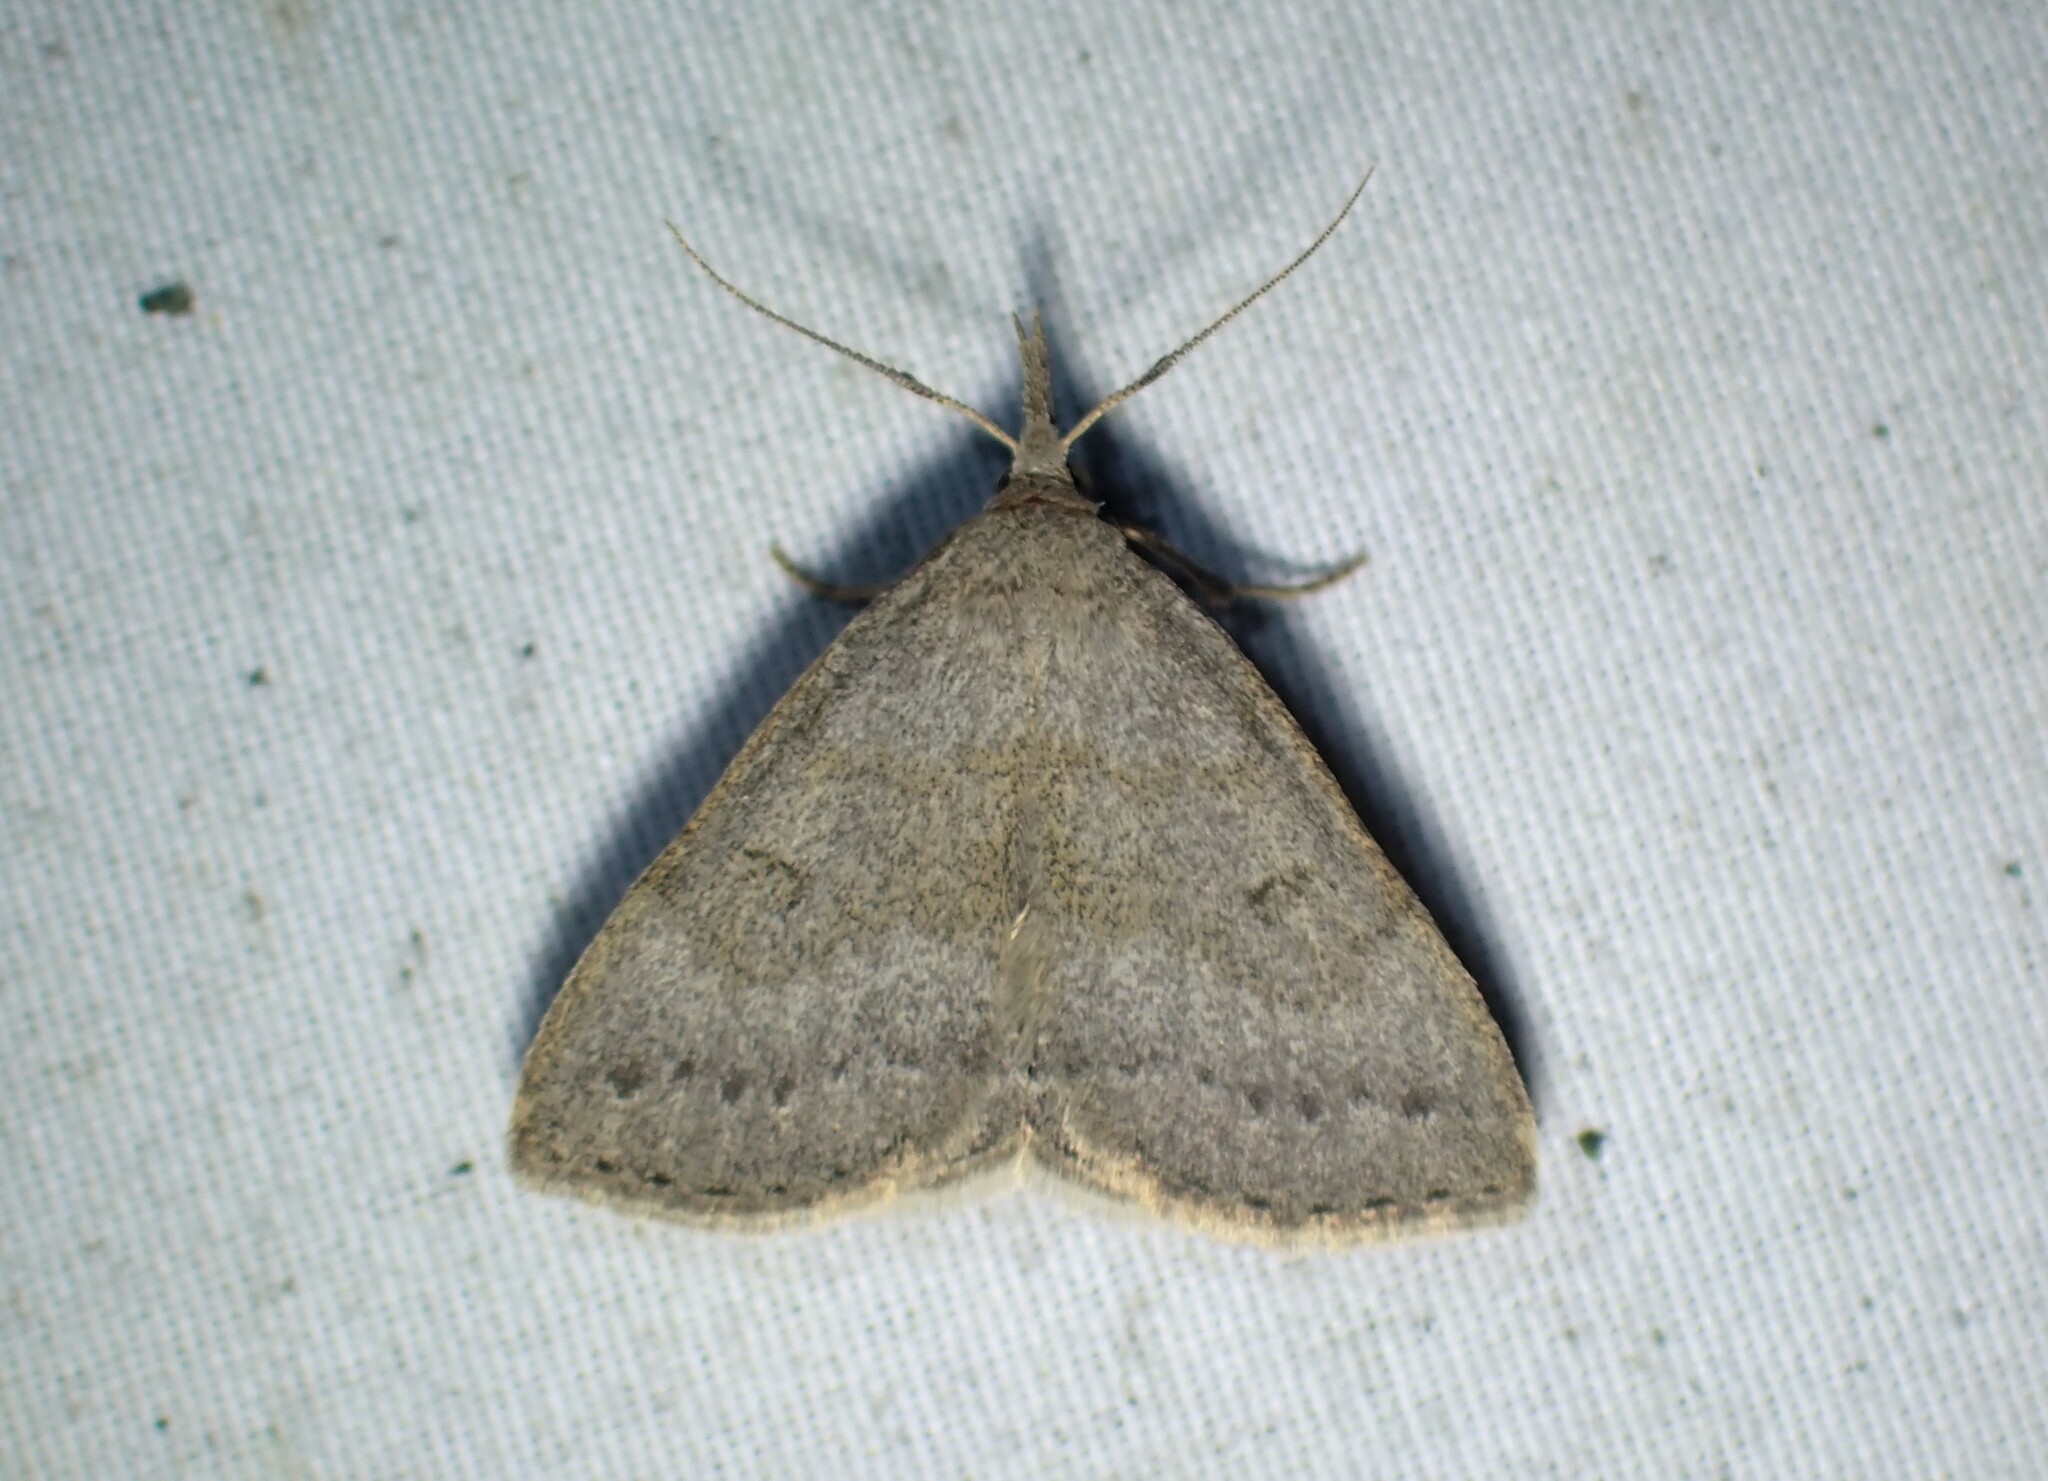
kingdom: Animalia
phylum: Arthropoda
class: Insecta
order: Lepidoptera
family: Erebidae
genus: Macrochilo
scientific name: Macrochilo morbidalis
